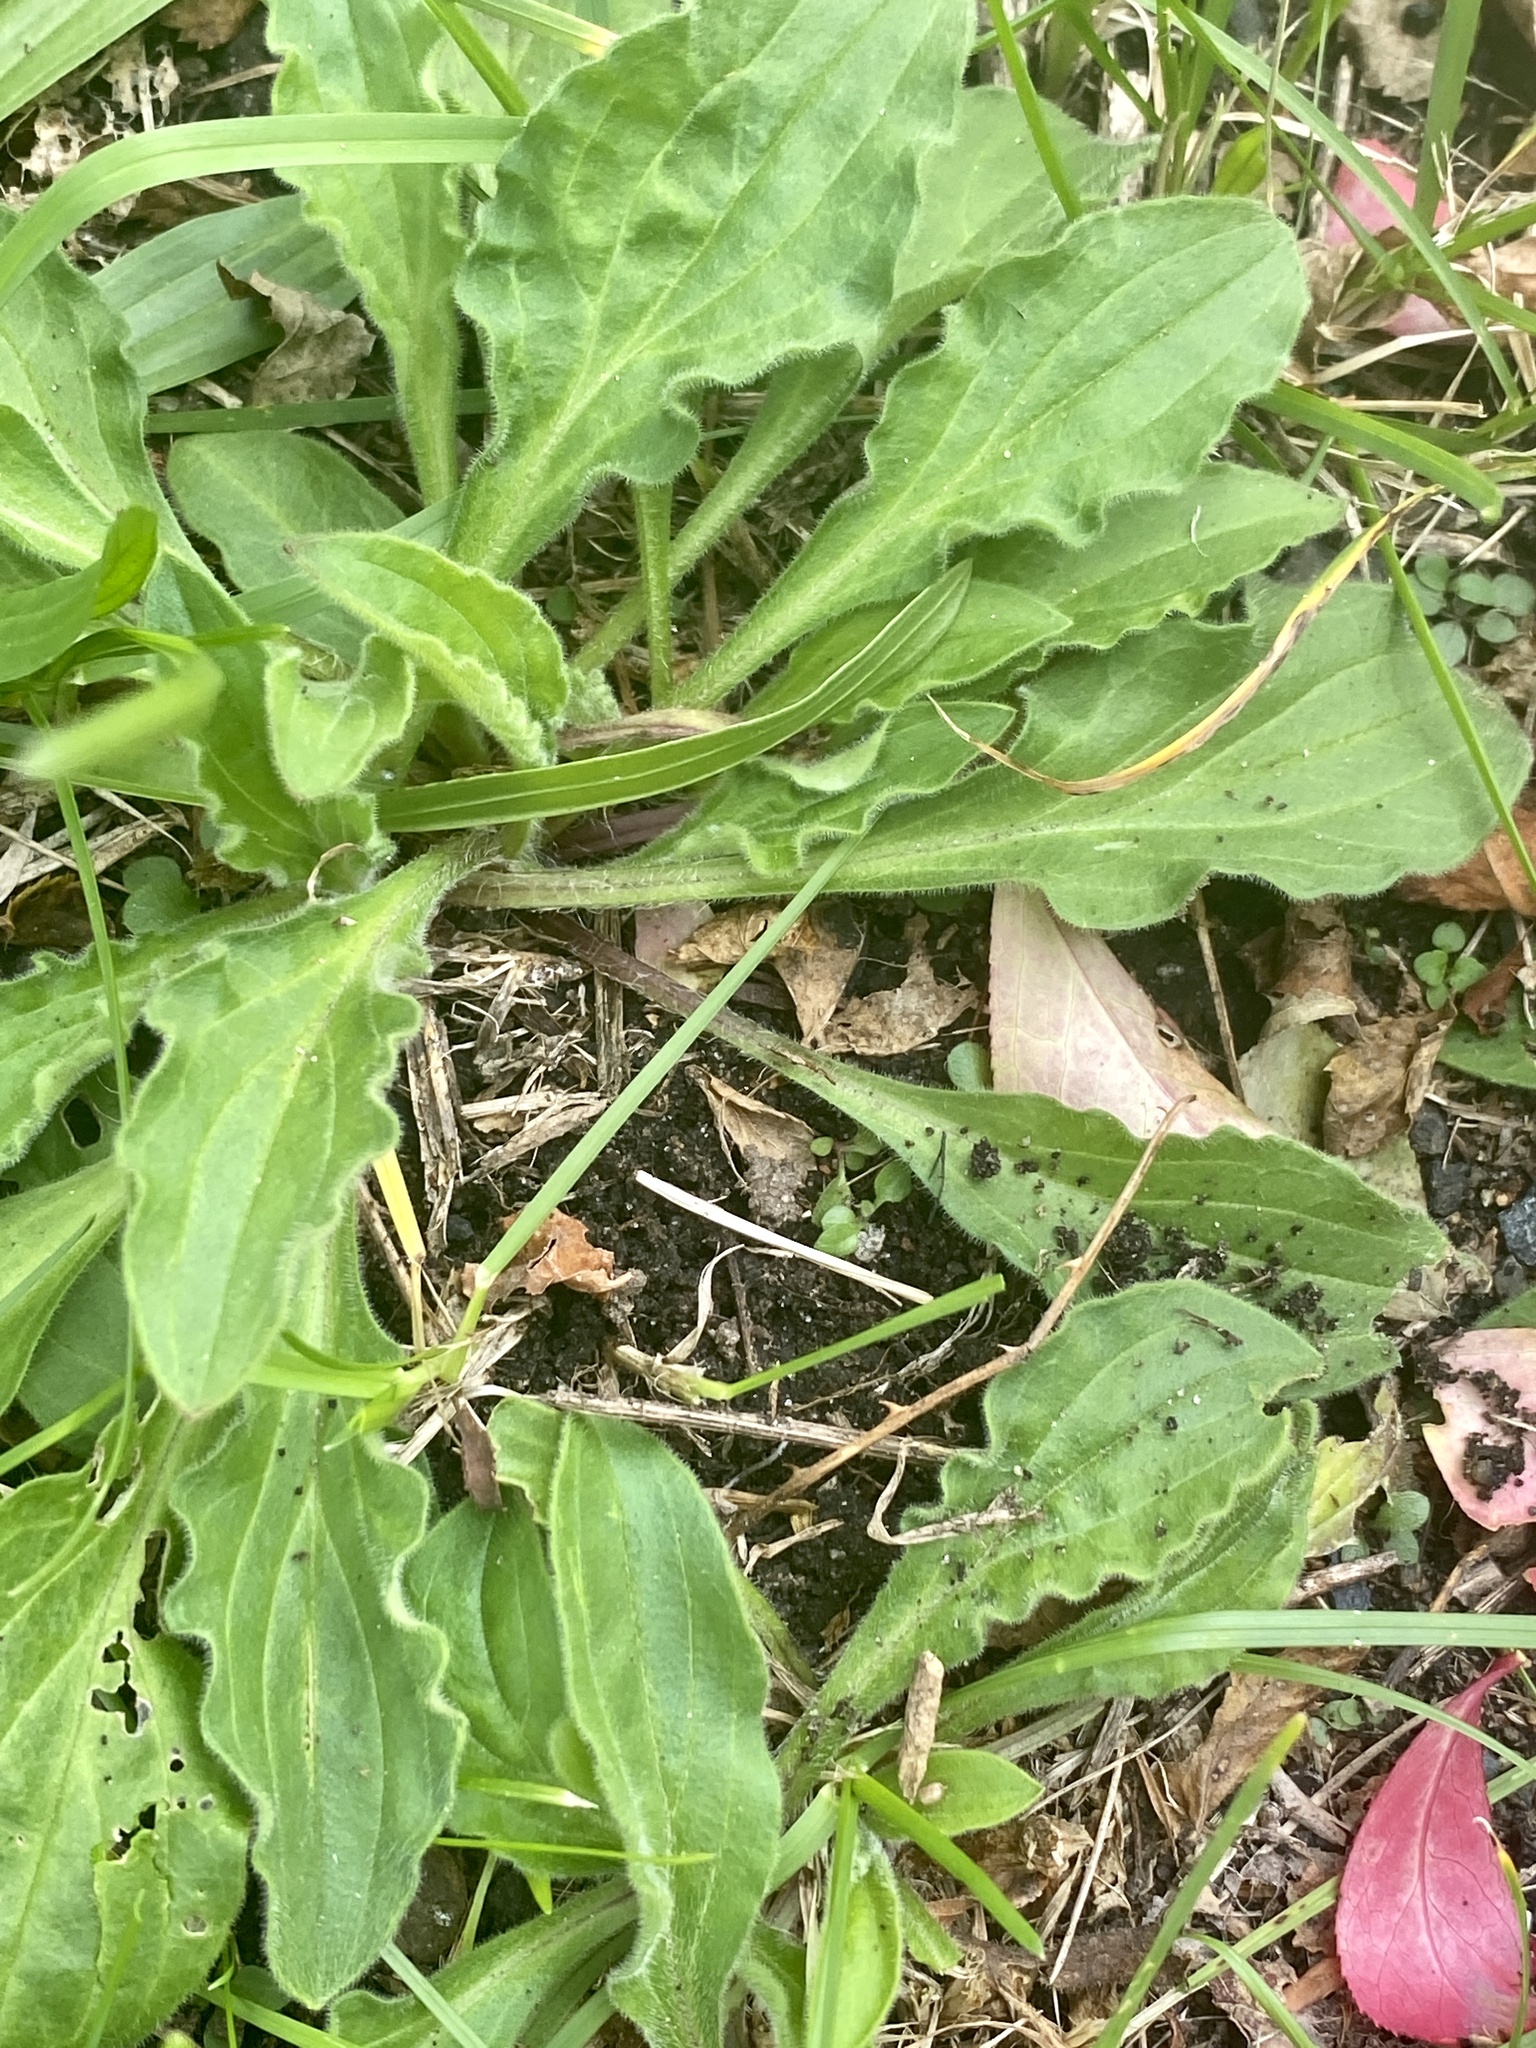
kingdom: Plantae
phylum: Tracheophyta
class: Magnoliopsida
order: Caryophyllales
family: Caryophyllaceae
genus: Silene
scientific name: Silene latifolia
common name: White campion
